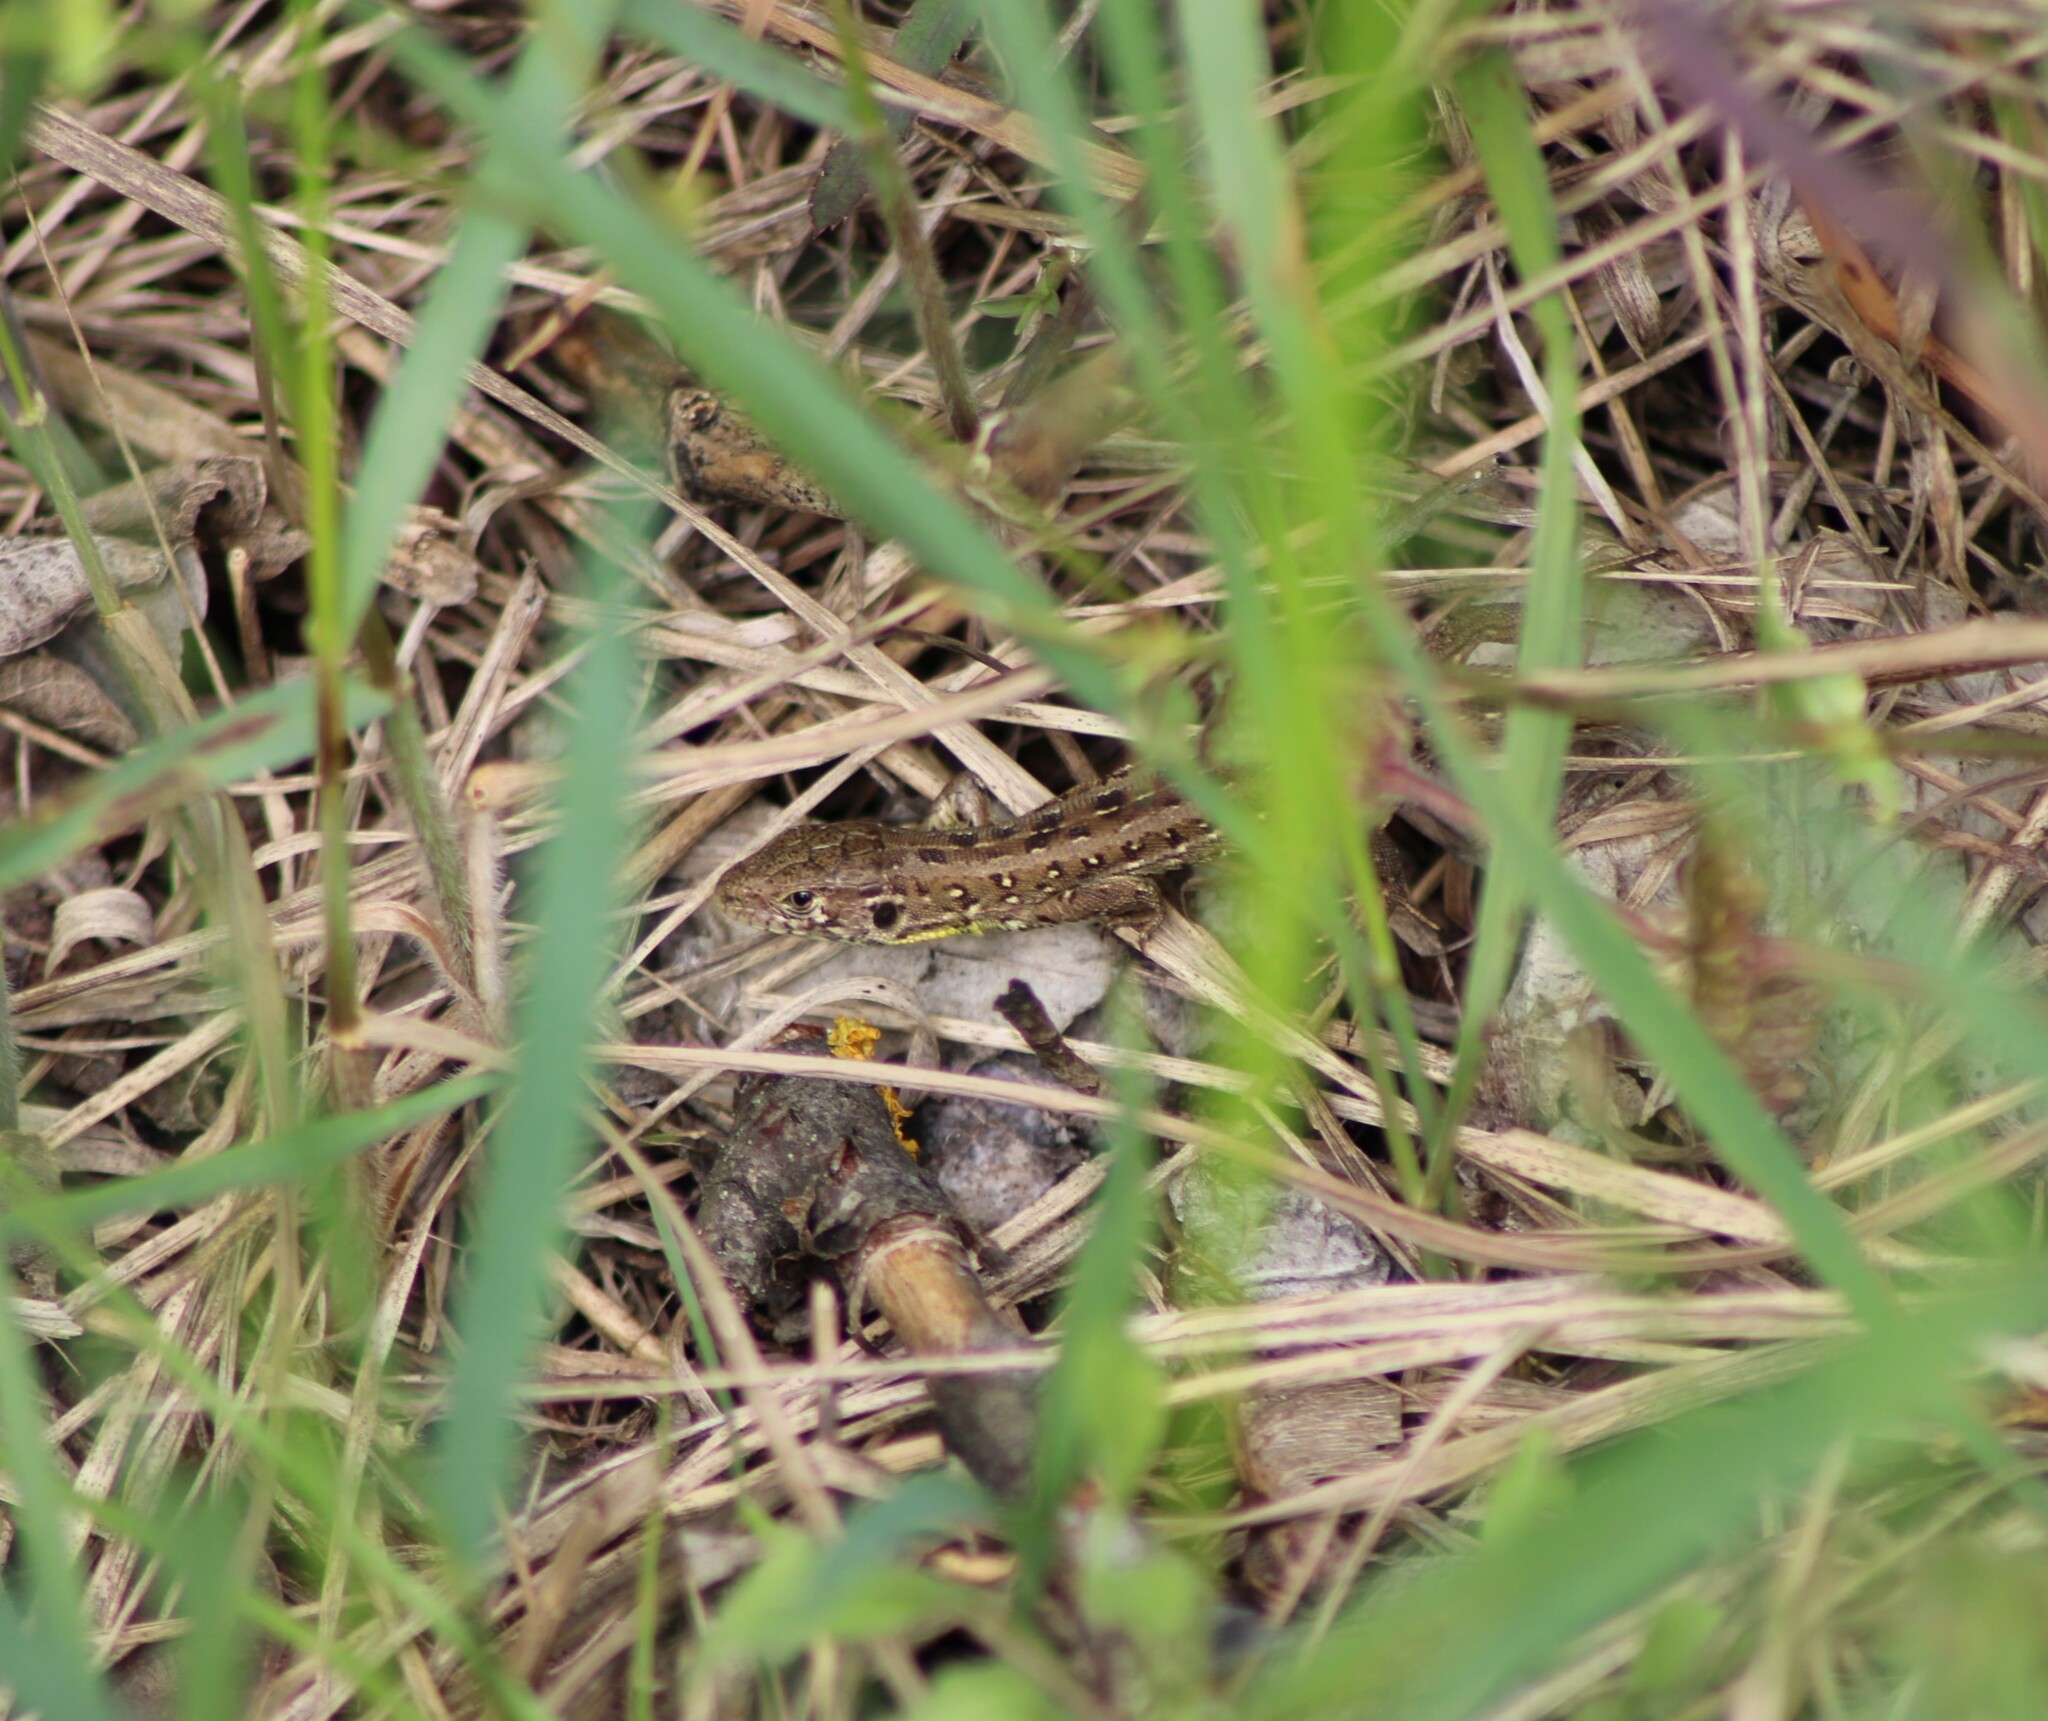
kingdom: Animalia
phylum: Chordata
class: Squamata
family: Lacertidae
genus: Lacerta
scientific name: Lacerta agilis
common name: Sand lizard
